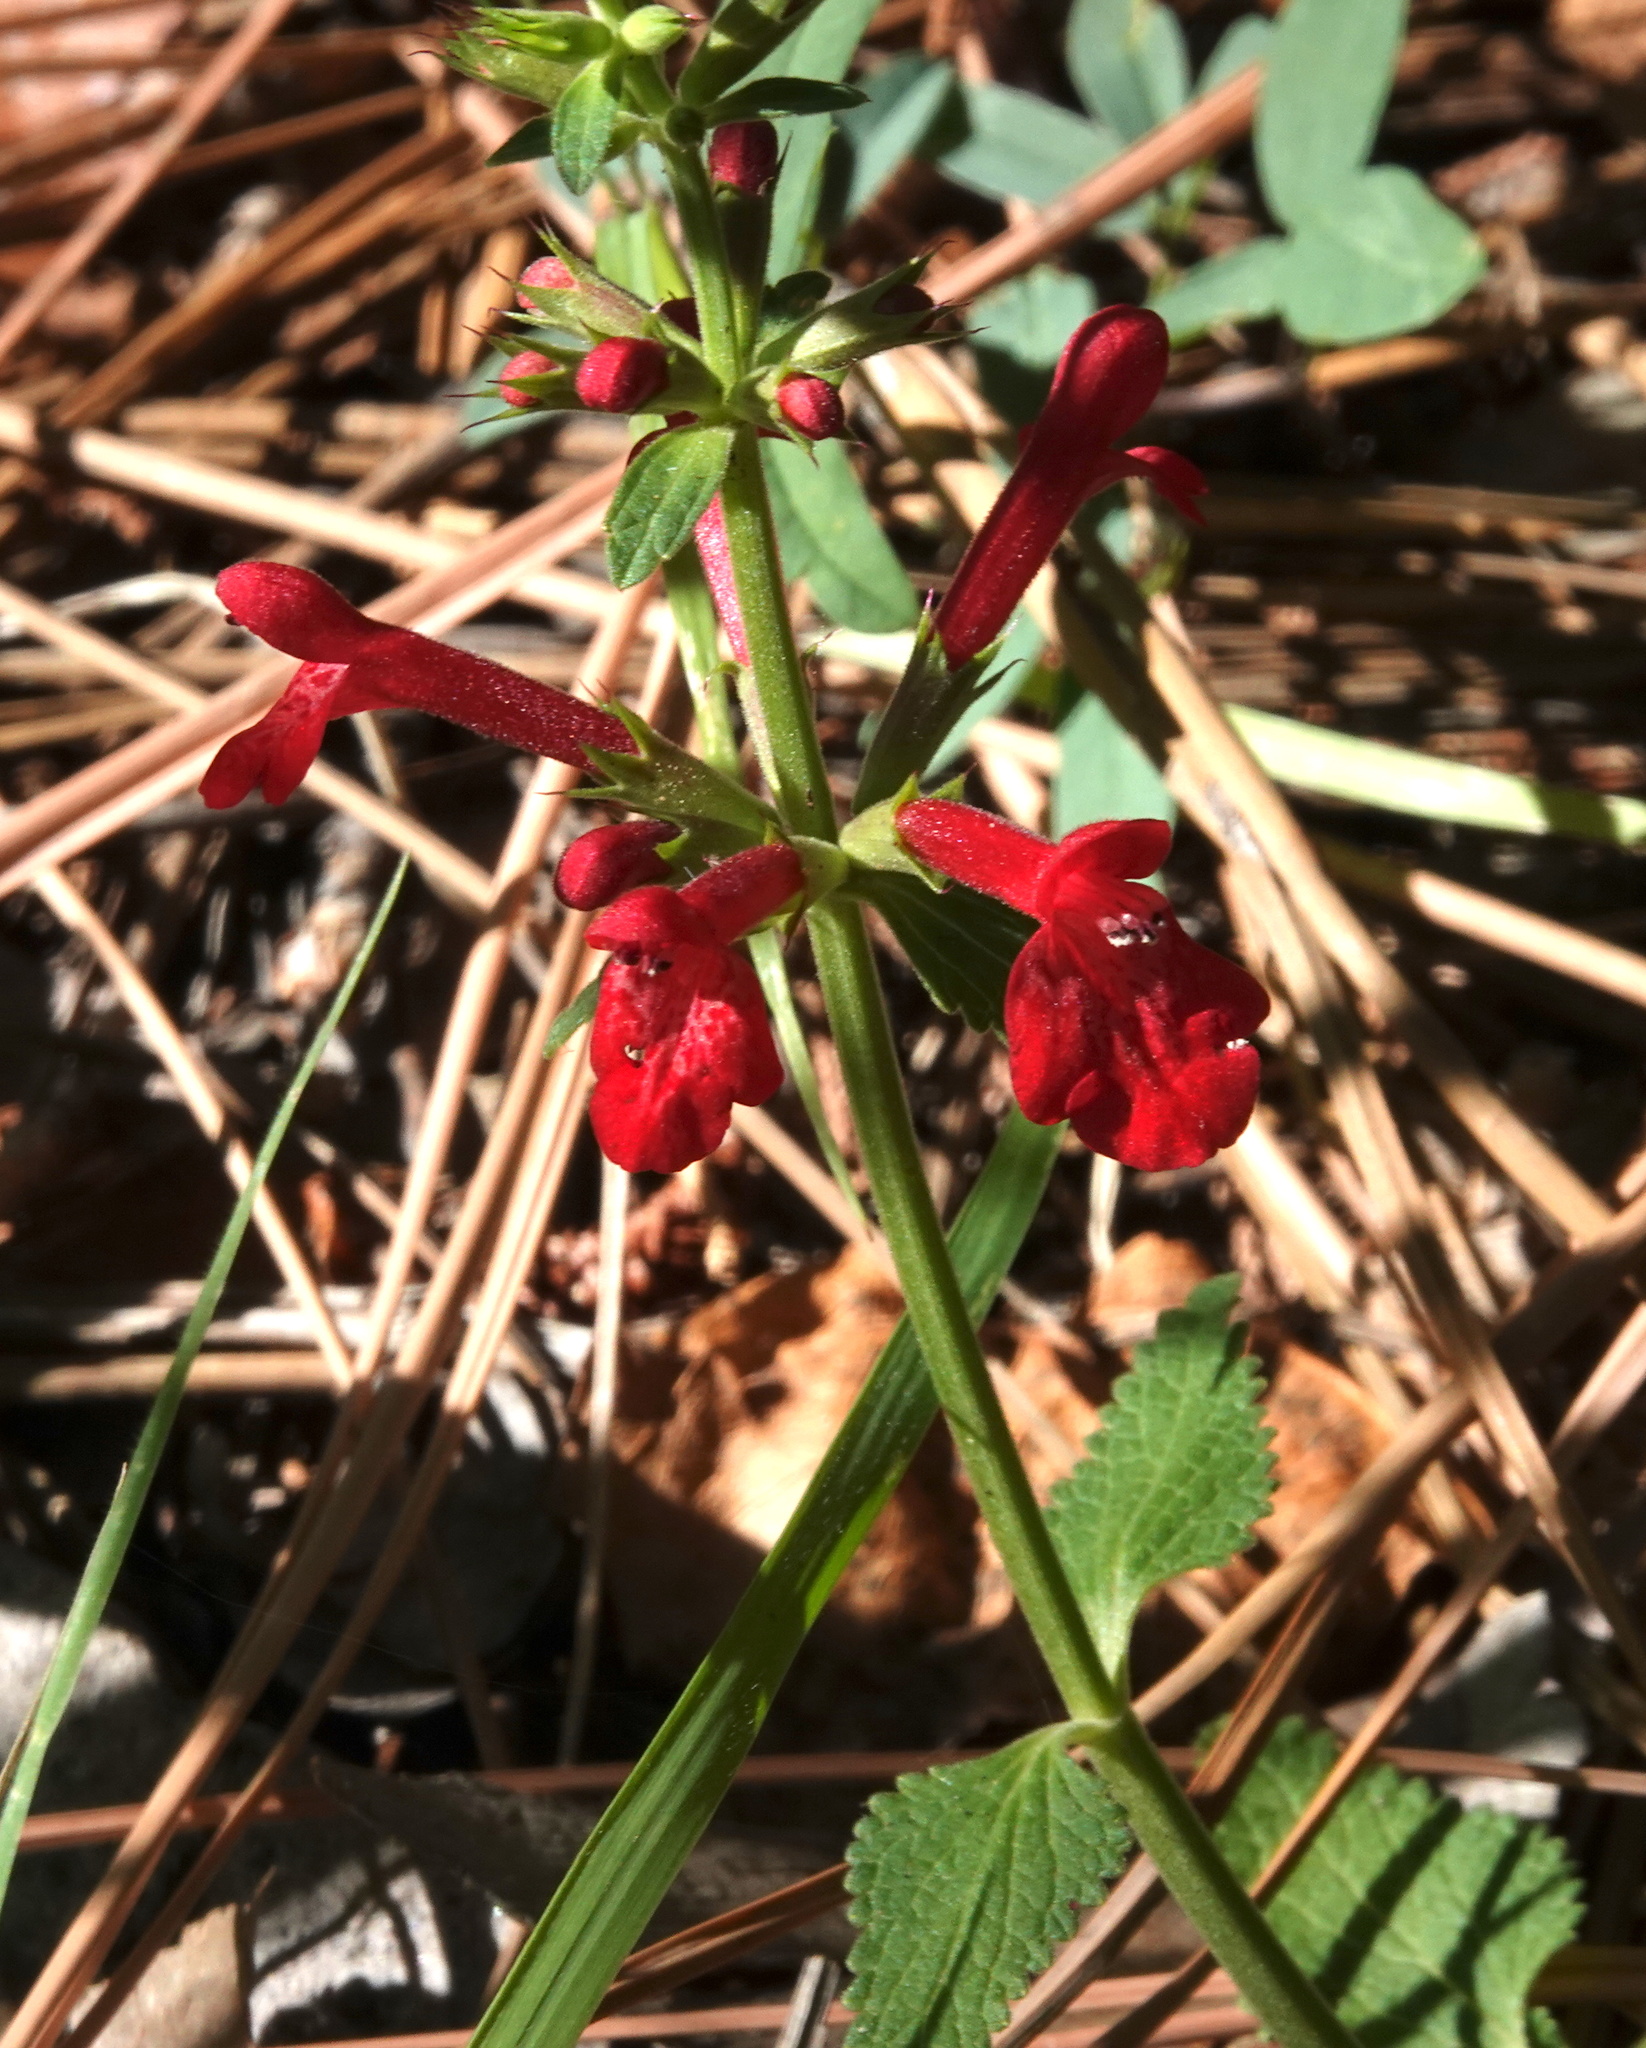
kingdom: Plantae
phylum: Tracheophyta
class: Magnoliopsida
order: Lamiales
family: Lamiaceae
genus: Stachys
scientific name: Stachys coccinea
